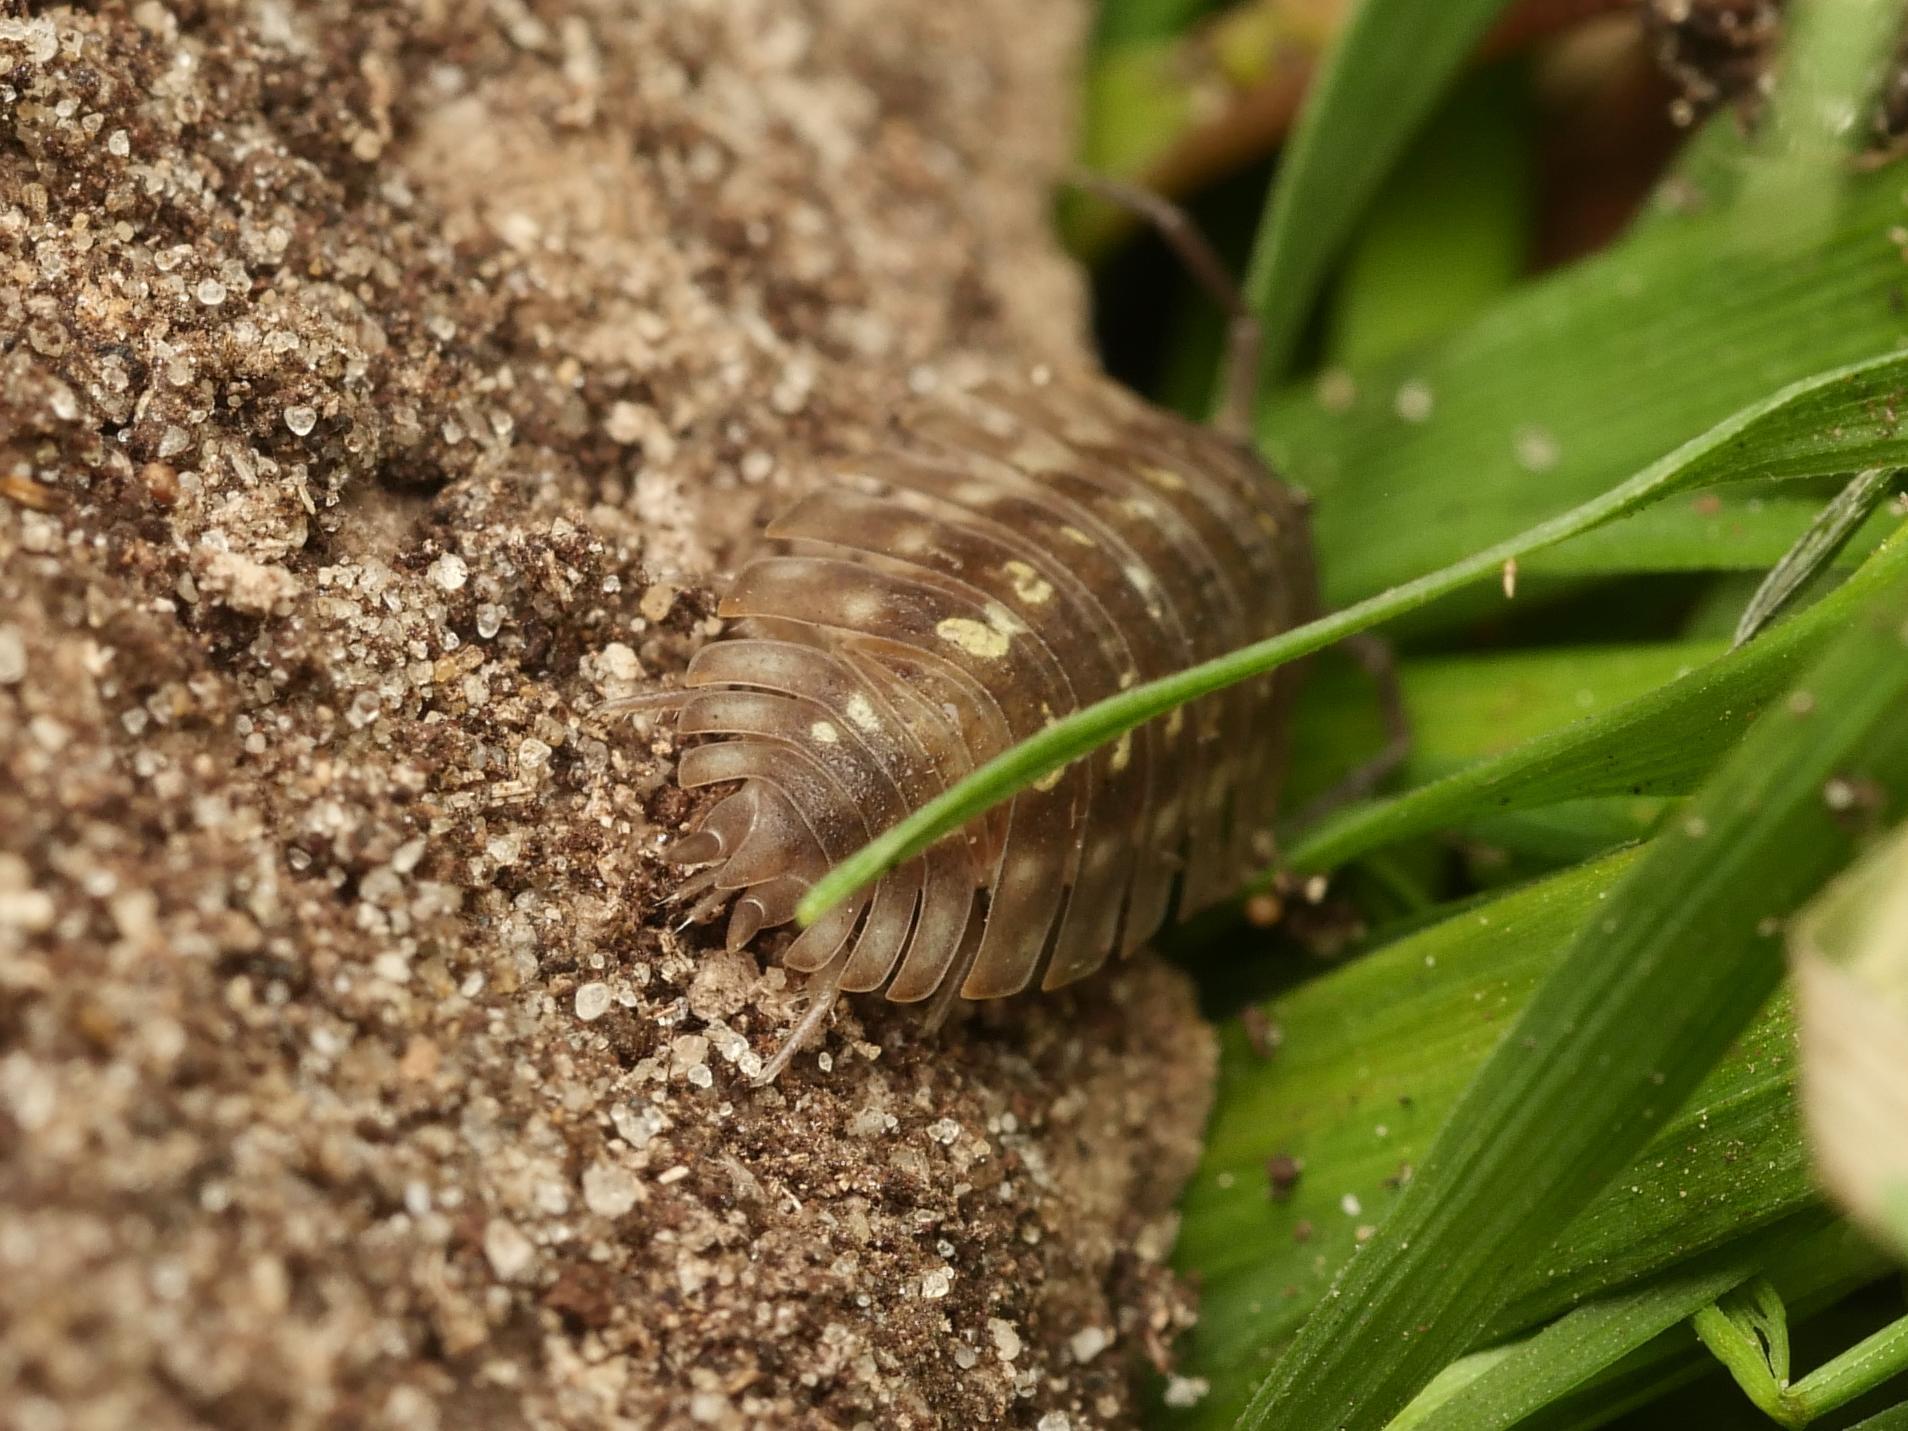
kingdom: Animalia
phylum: Arthropoda
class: Malacostraca
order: Isopoda
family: Oniscidae
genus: Oniscus
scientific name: Oniscus asellus
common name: Common shiny woodlouse
